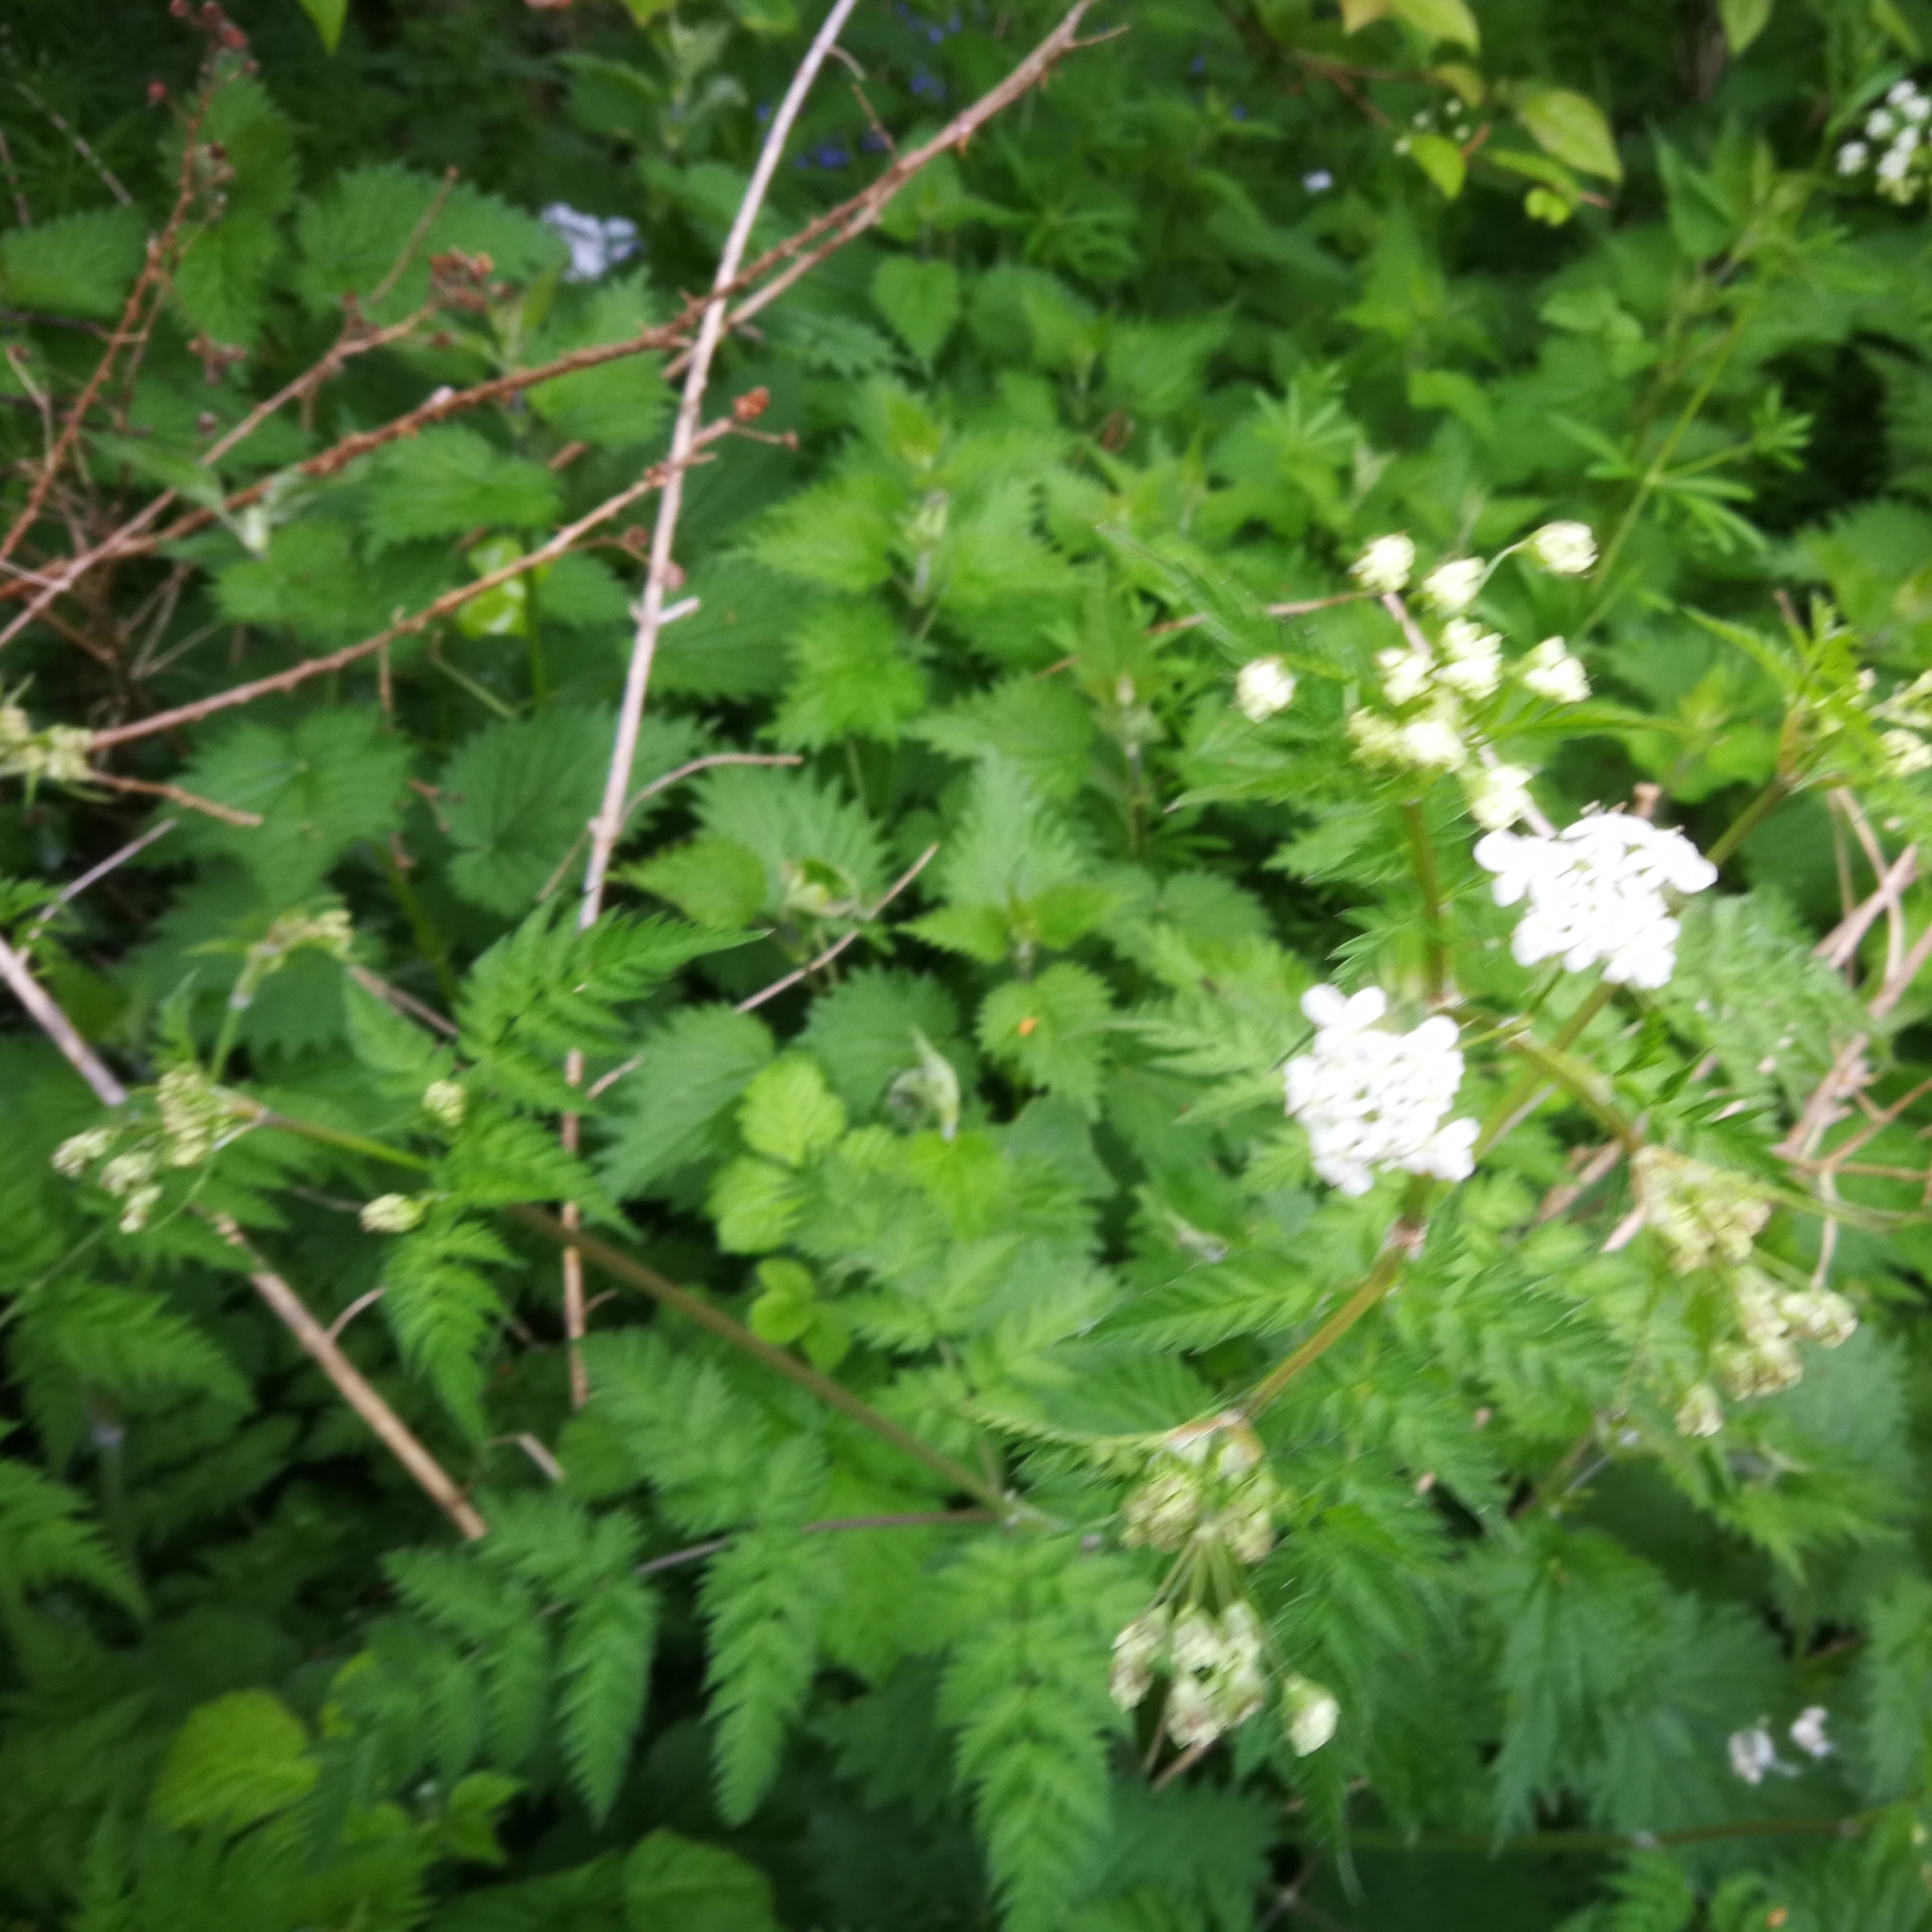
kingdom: Plantae
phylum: Tracheophyta
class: Magnoliopsida
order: Apiales
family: Apiaceae
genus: Anthriscus
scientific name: Anthriscus sylvestris
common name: Cow parsley
